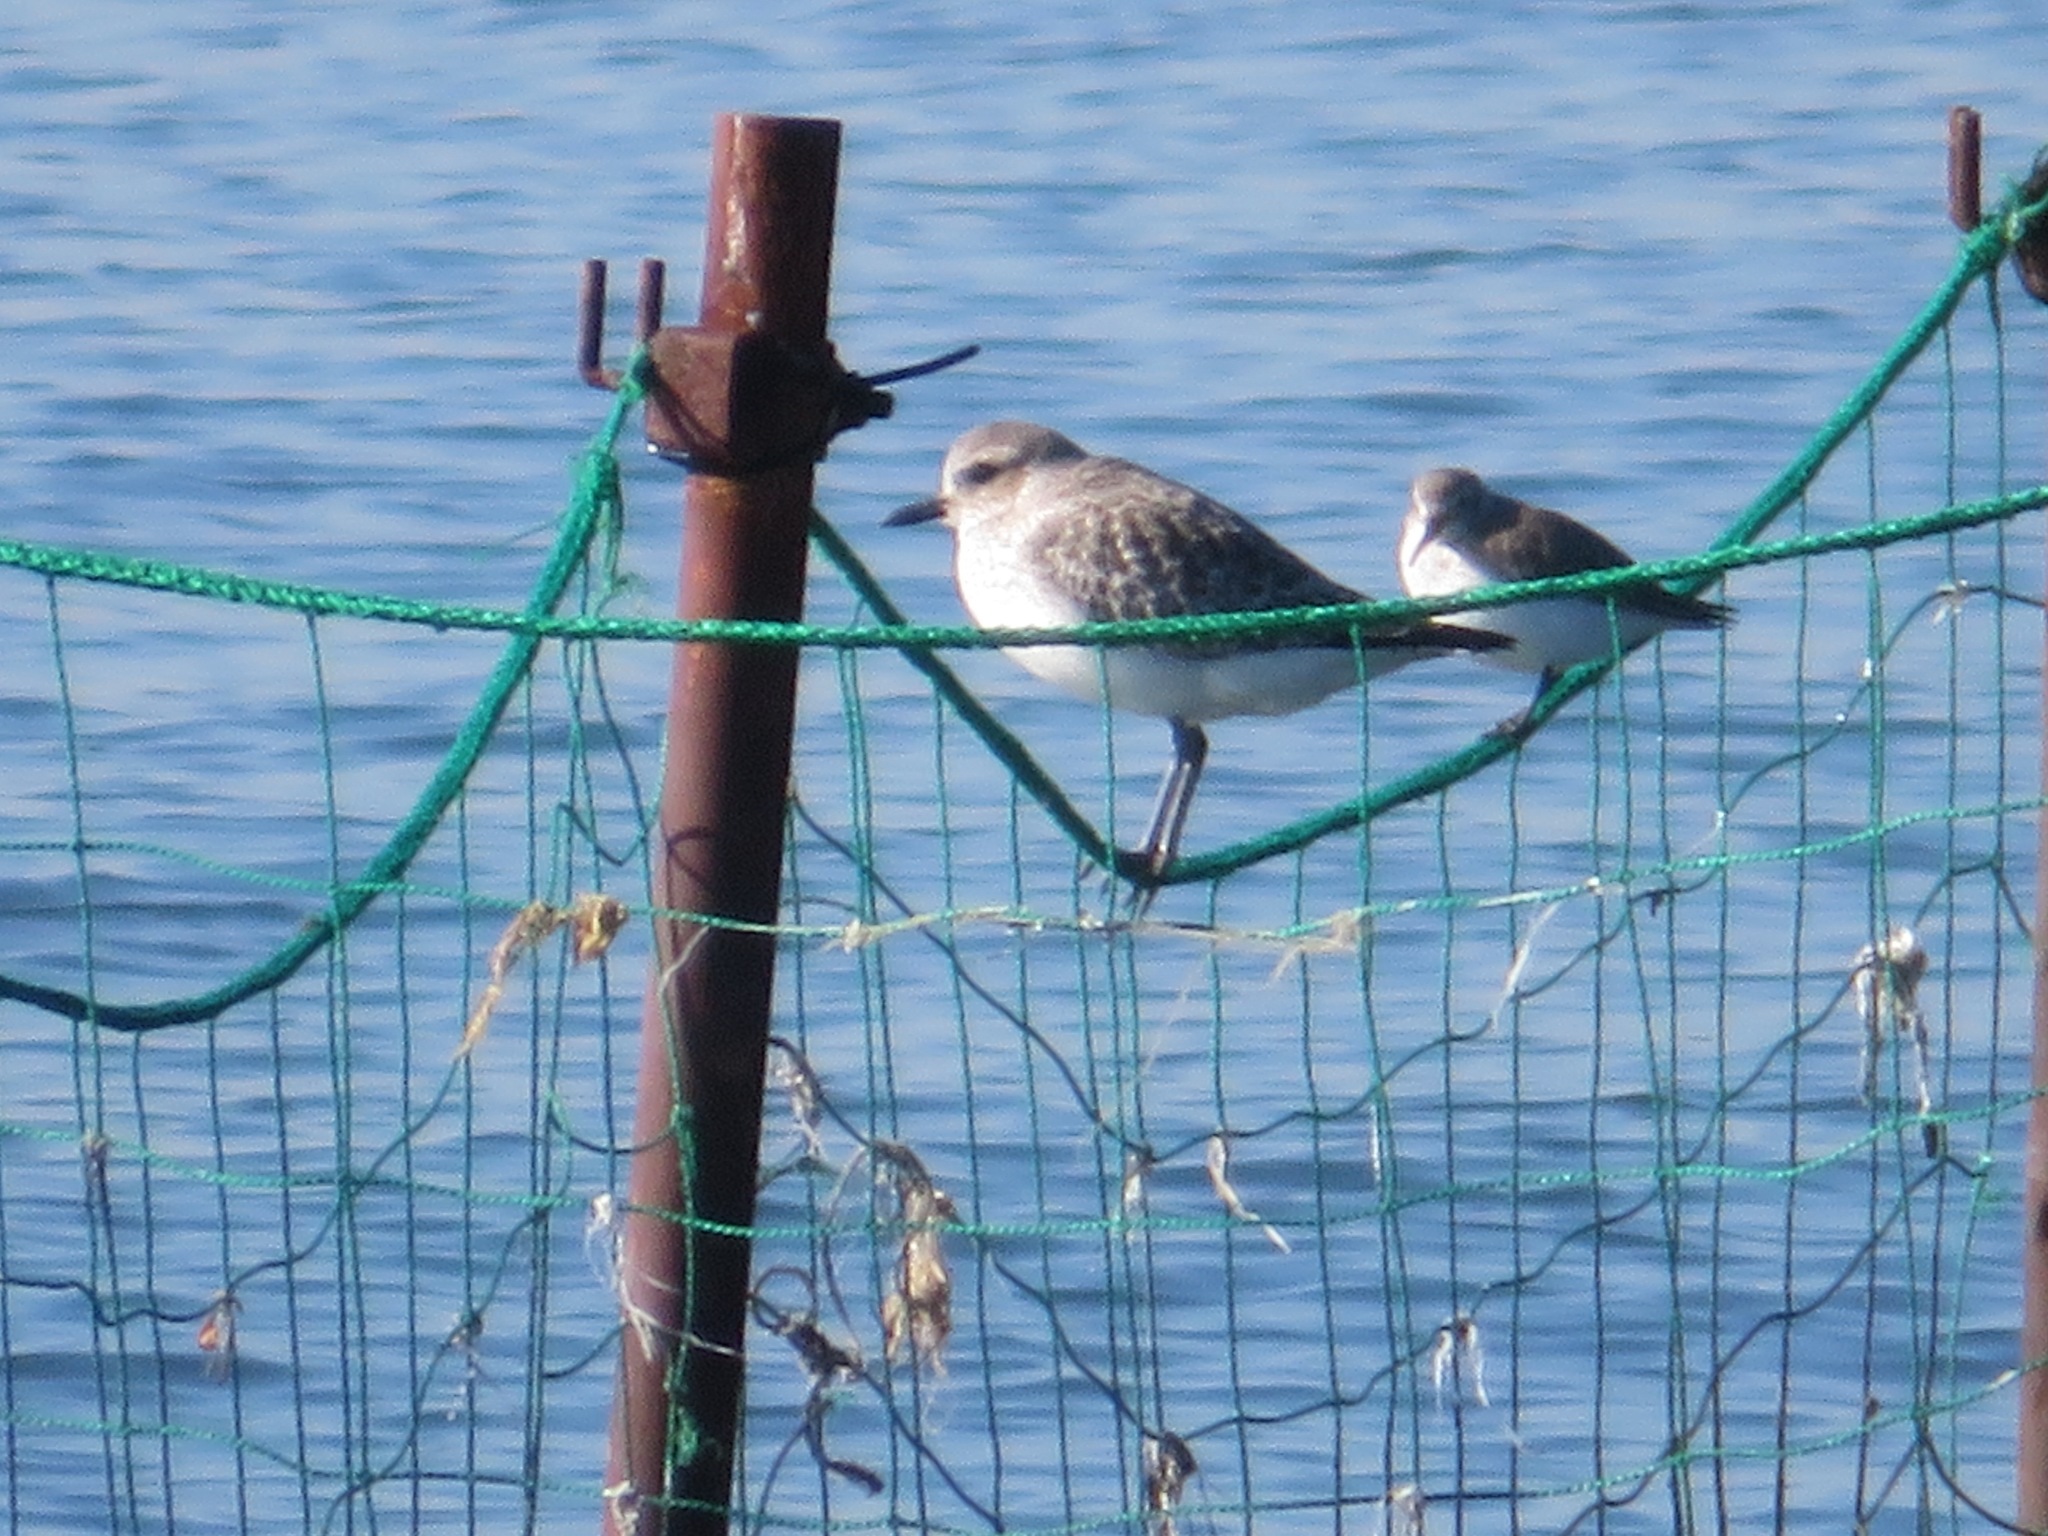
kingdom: Animalia
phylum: Chordata
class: Aves
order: Charadriiformes
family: Scolopacidae
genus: Calidris
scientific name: Calidris alpina
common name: Dunlin
